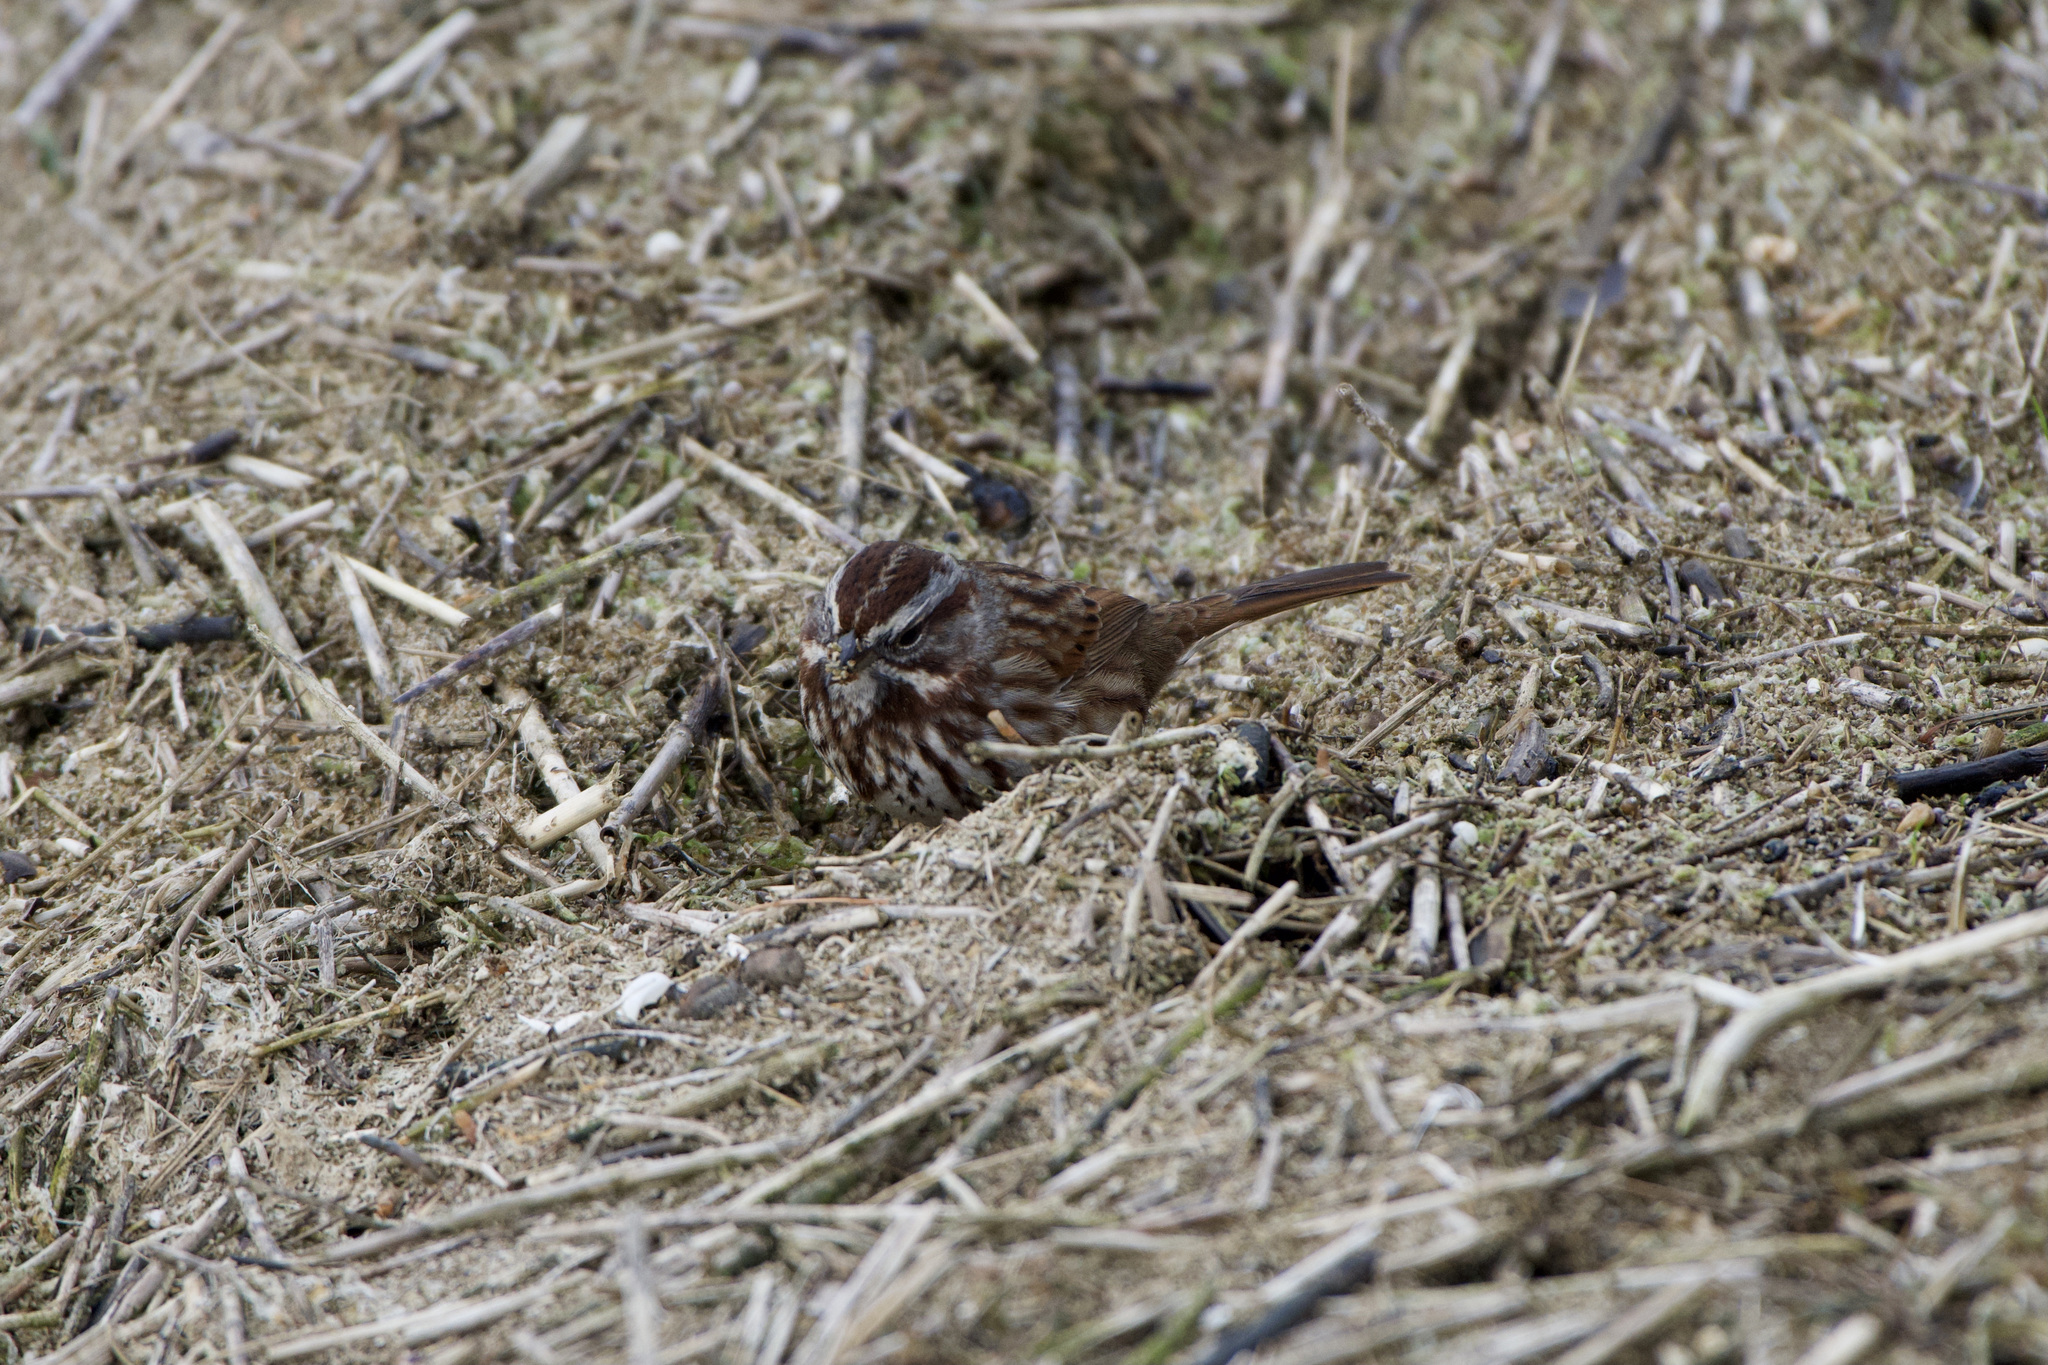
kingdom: Animalia
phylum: Chordata
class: Aves
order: Passeriformes
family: Passerellidae
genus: Melospiza
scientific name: Melospiza melodia
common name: Song sparrow
